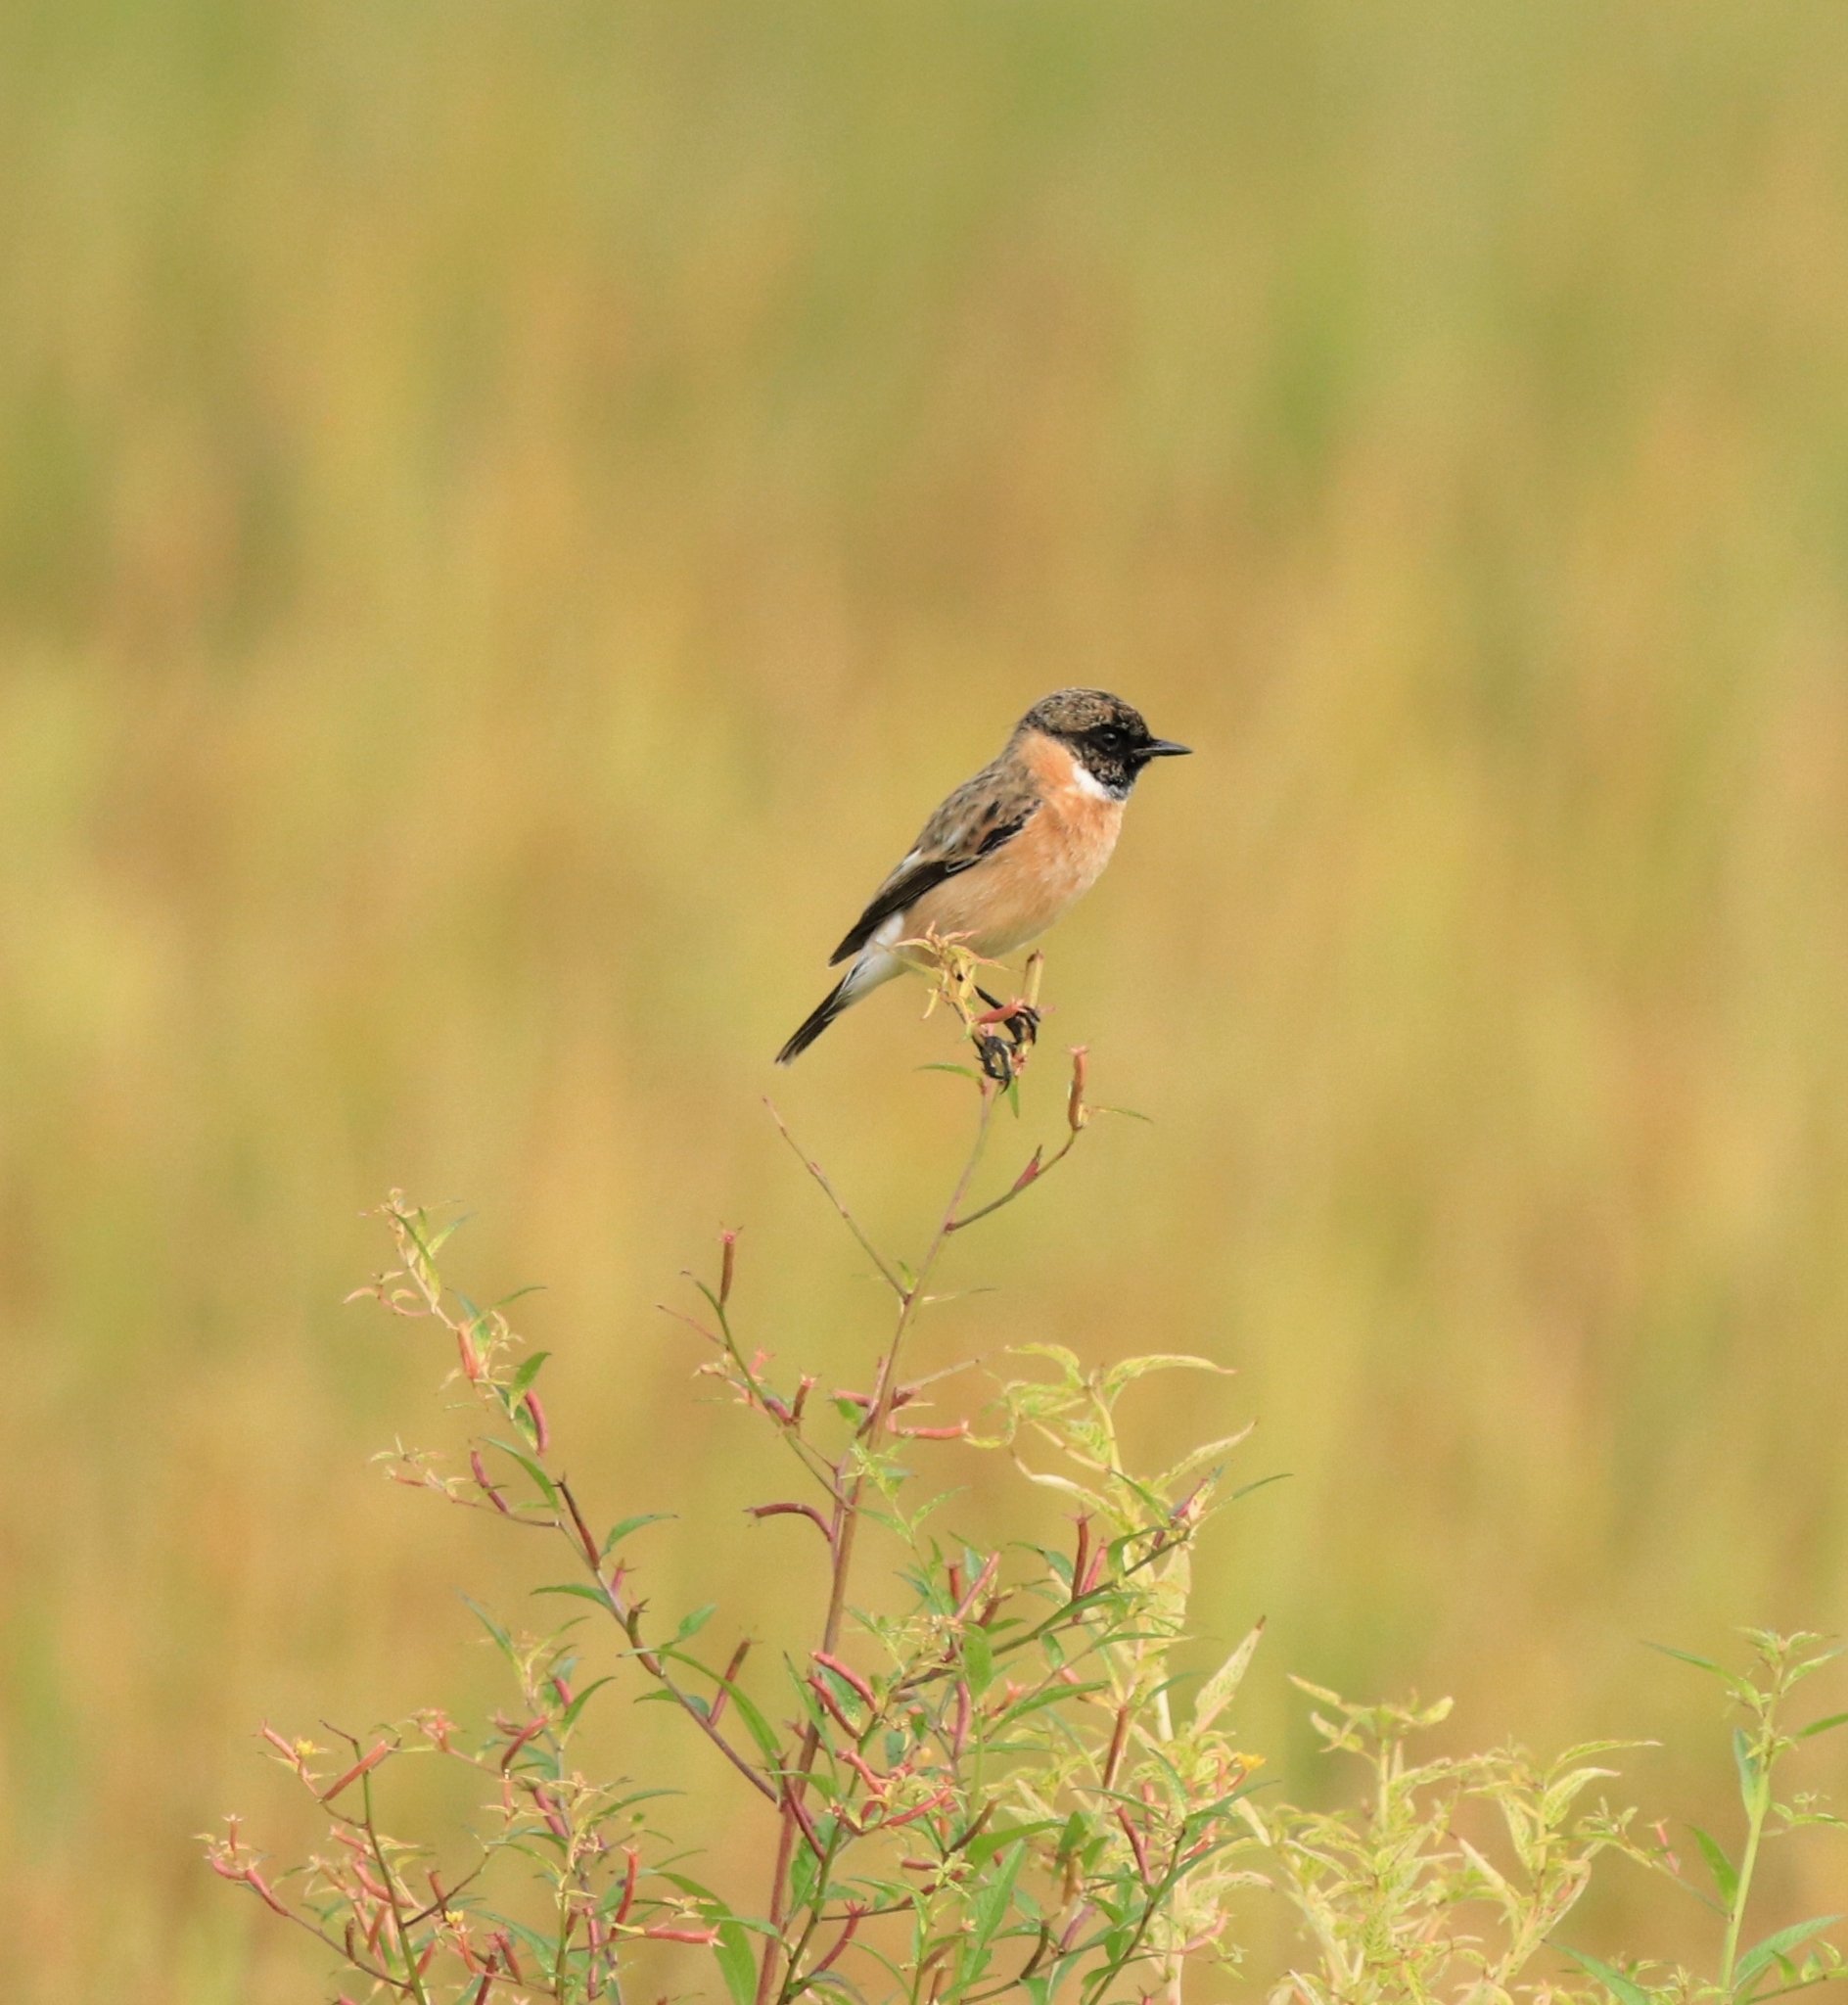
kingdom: Animalia
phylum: Chordata
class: Aves
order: Passeriformes
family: Muscicapidae
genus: Saxicola
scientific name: Saxicola maurus
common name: Siberian stonechat
